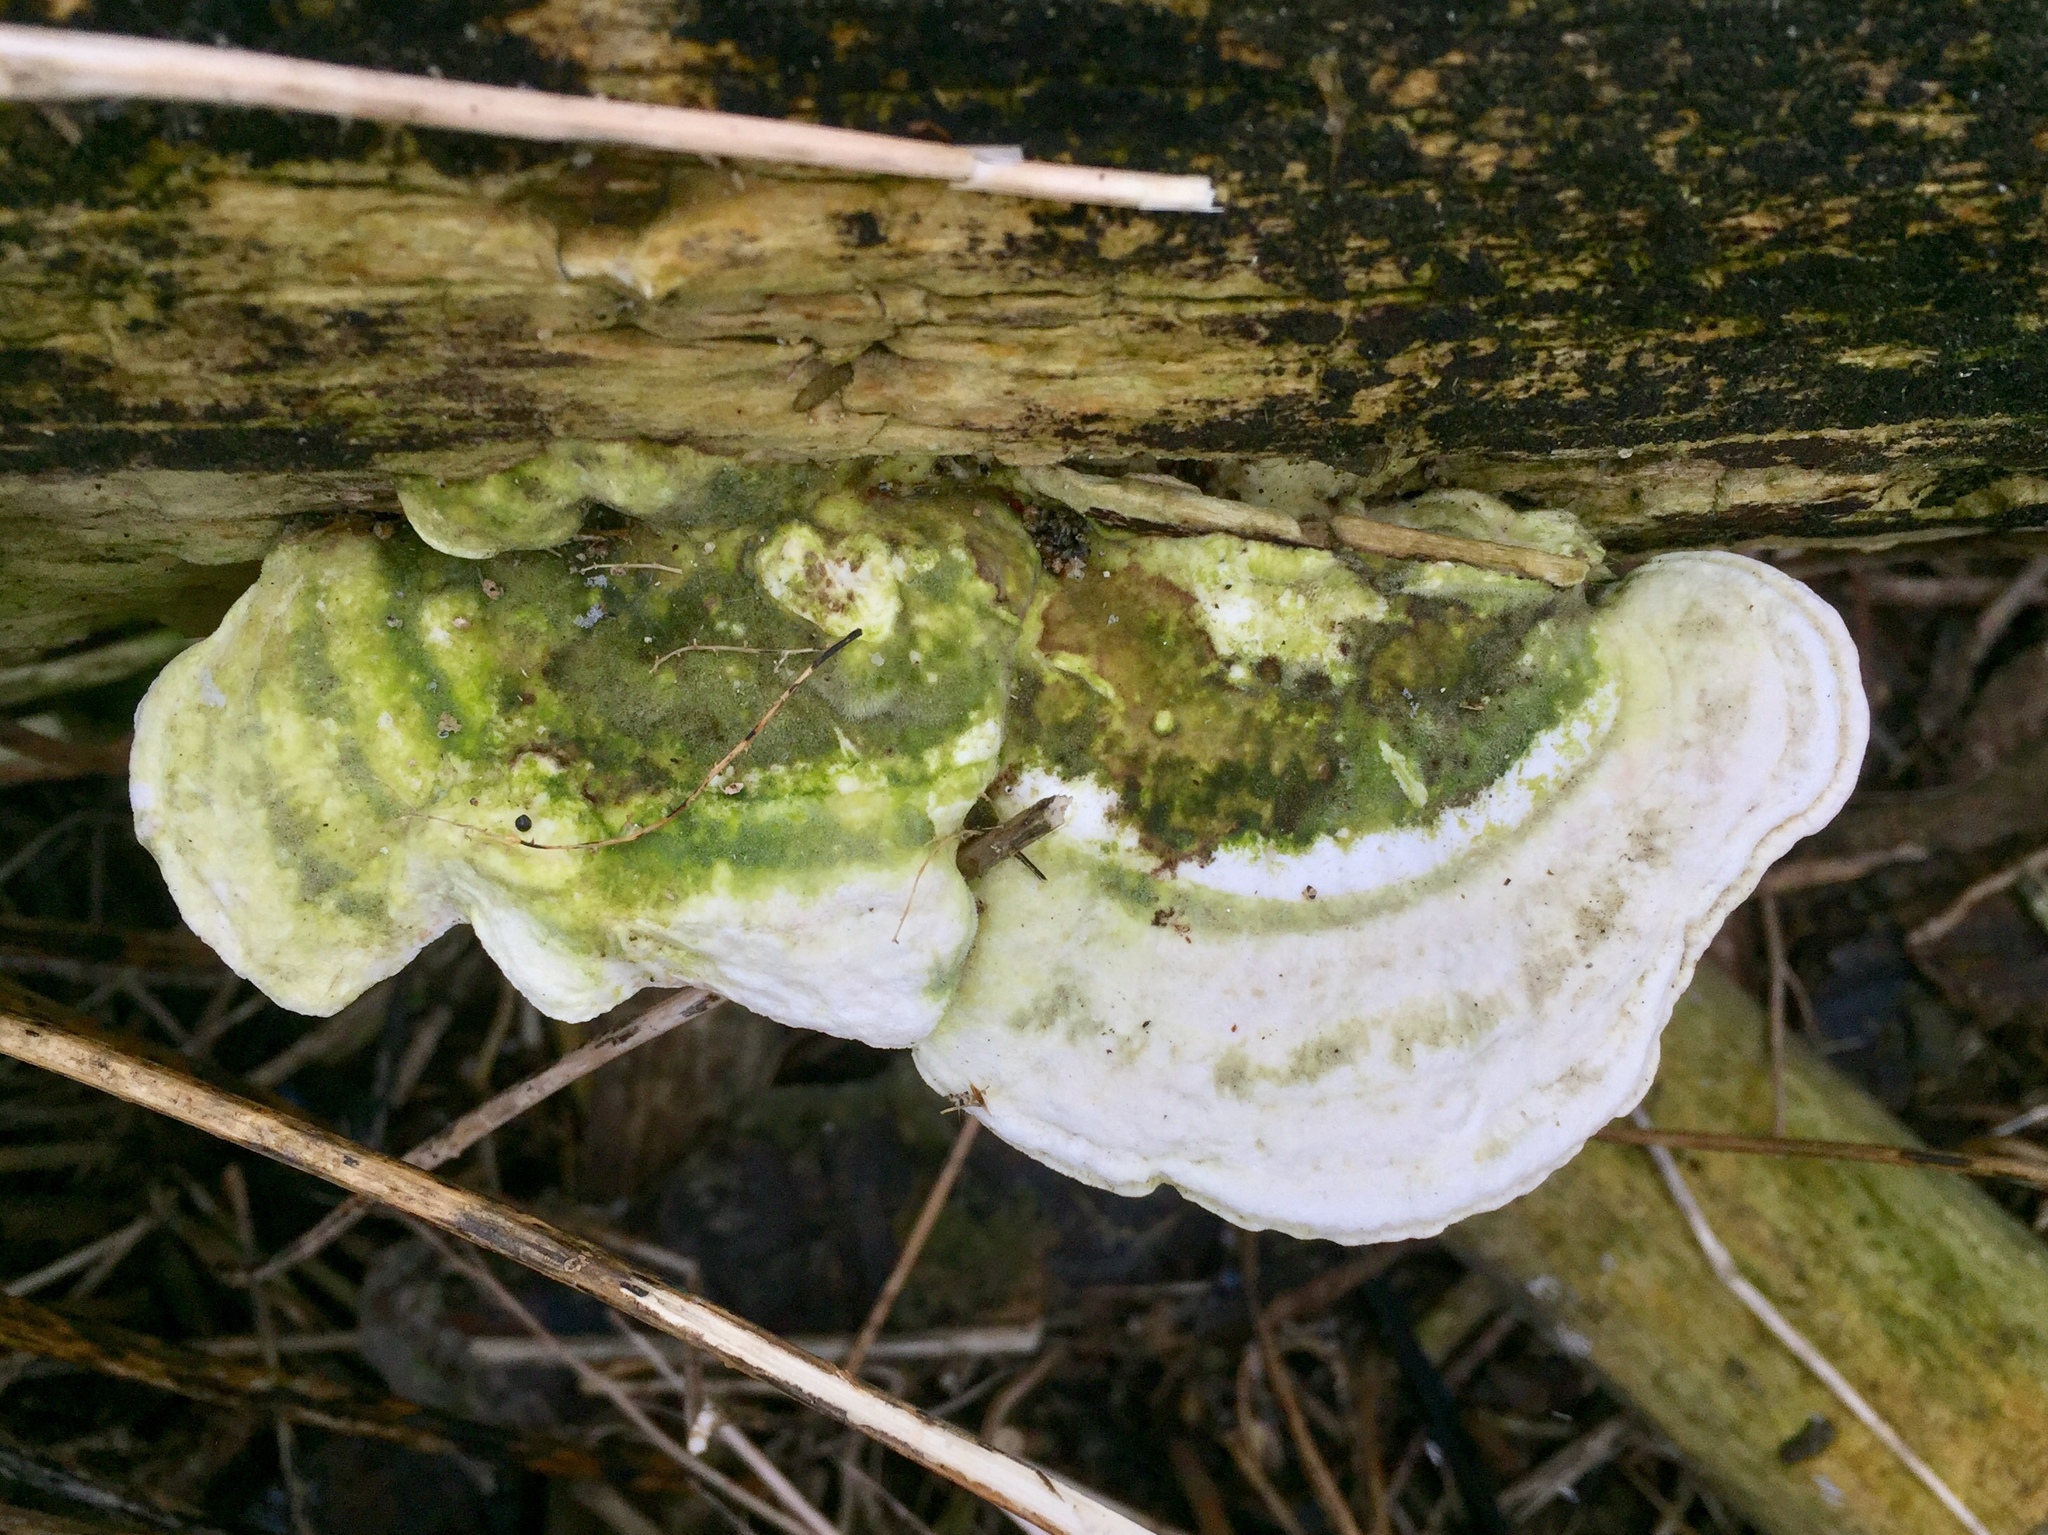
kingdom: Fungi
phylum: Basidiomycota
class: Agaricomycetes
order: Polyporales
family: Polyporaceae
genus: Trametes
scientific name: Trametes gibbosa
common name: Lumpy bracket
